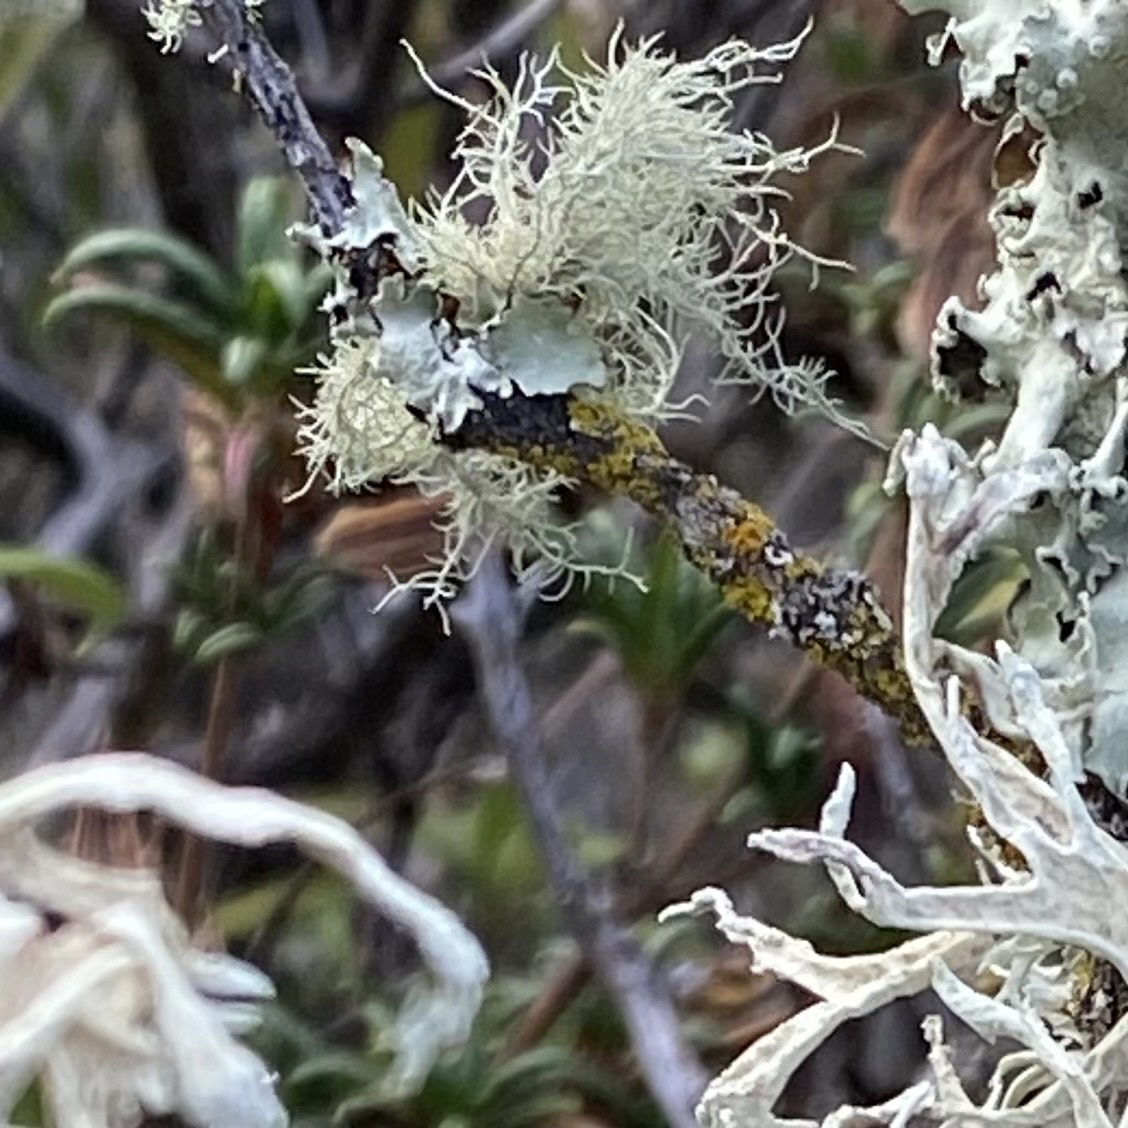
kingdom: Fungi
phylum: Ascomycota
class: Lecanoromycetes
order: Lecanorales
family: Parmeliaceae
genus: Usnea
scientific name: Usnea
